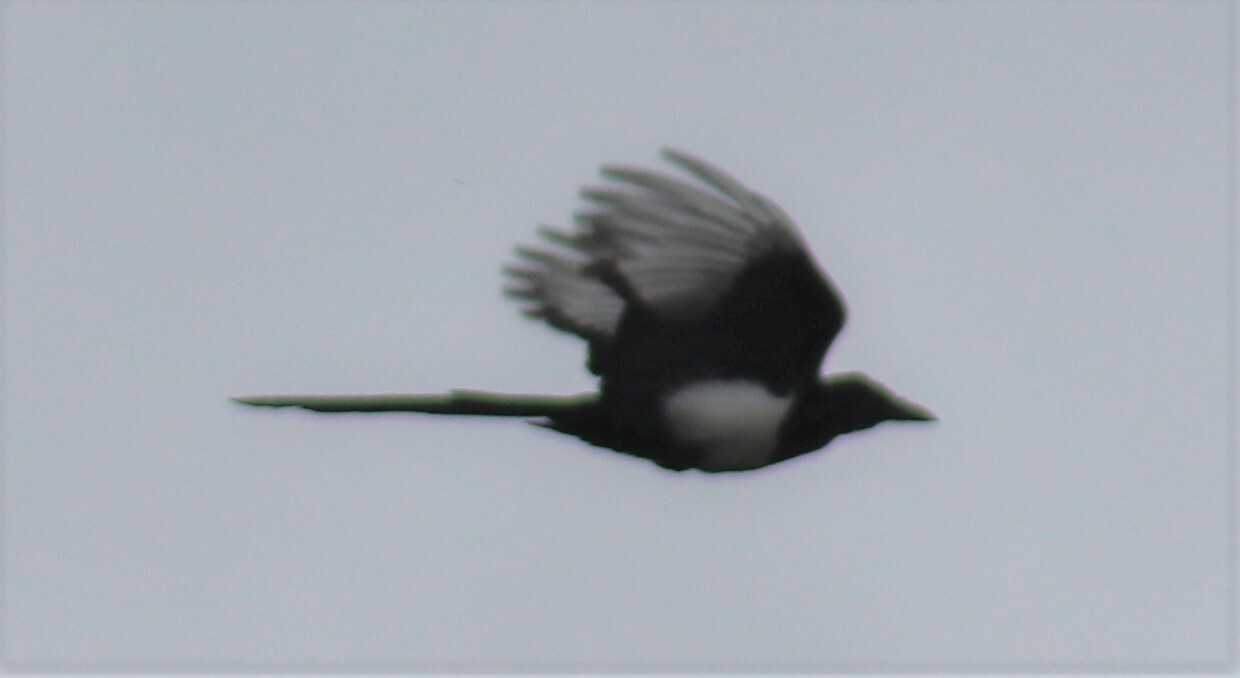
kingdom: Animalia
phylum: Chordata
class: Aves
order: Passeriformes
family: Corvidae
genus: Pica
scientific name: Pica hudsonia
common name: Black-billed magpie
